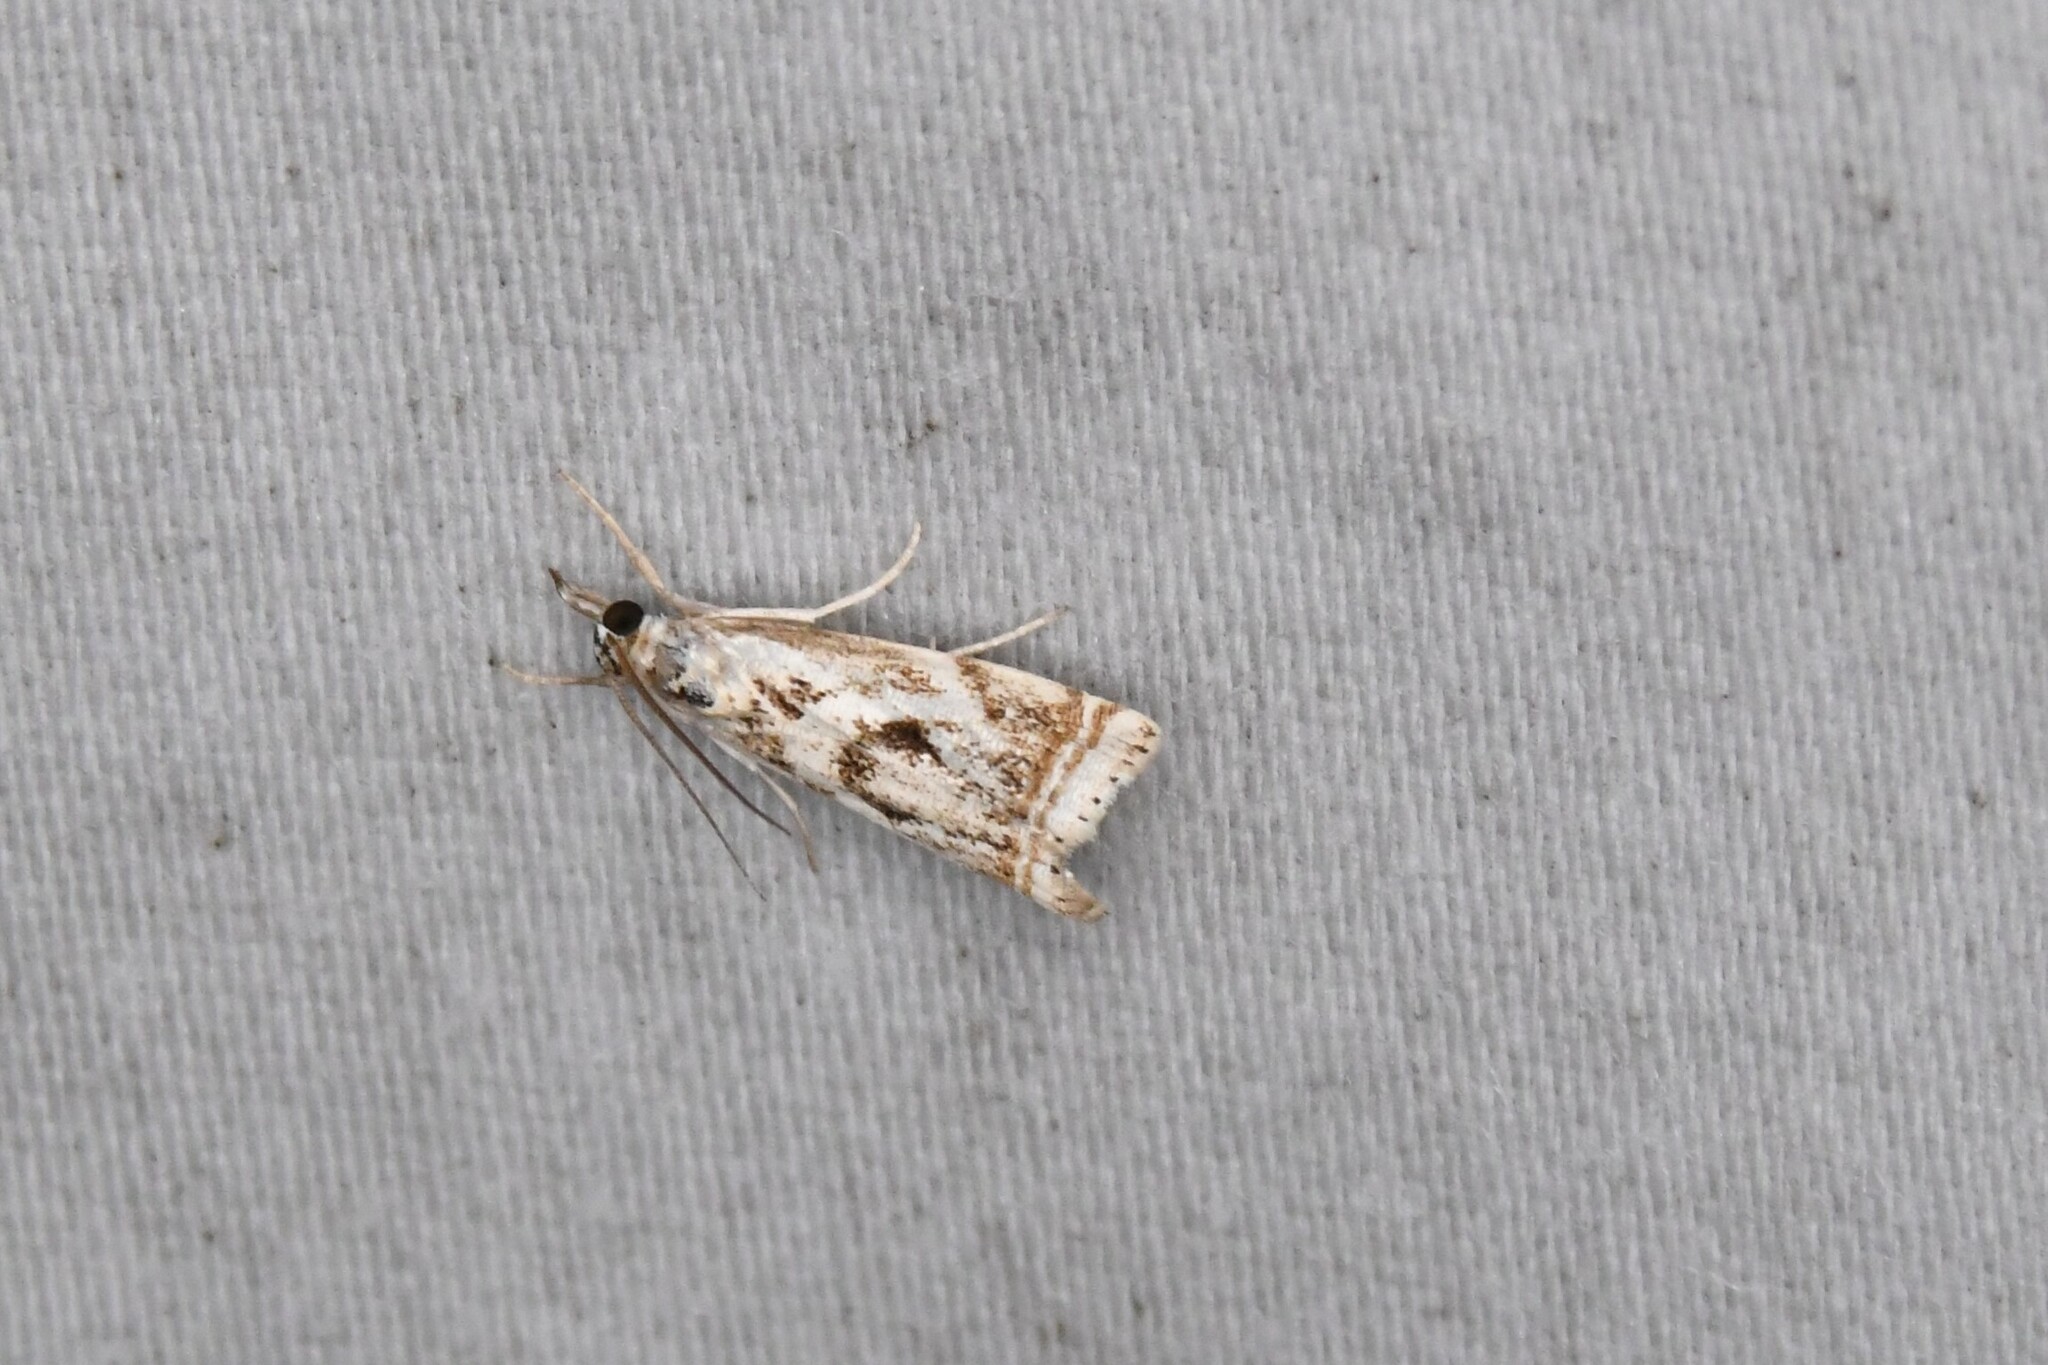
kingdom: Animalia
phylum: Arthropoda
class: Insecta
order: Lepidoptera
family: Crambidae
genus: Microcrambus
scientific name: Microcrambus elegans
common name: Elegant grass-veneer
